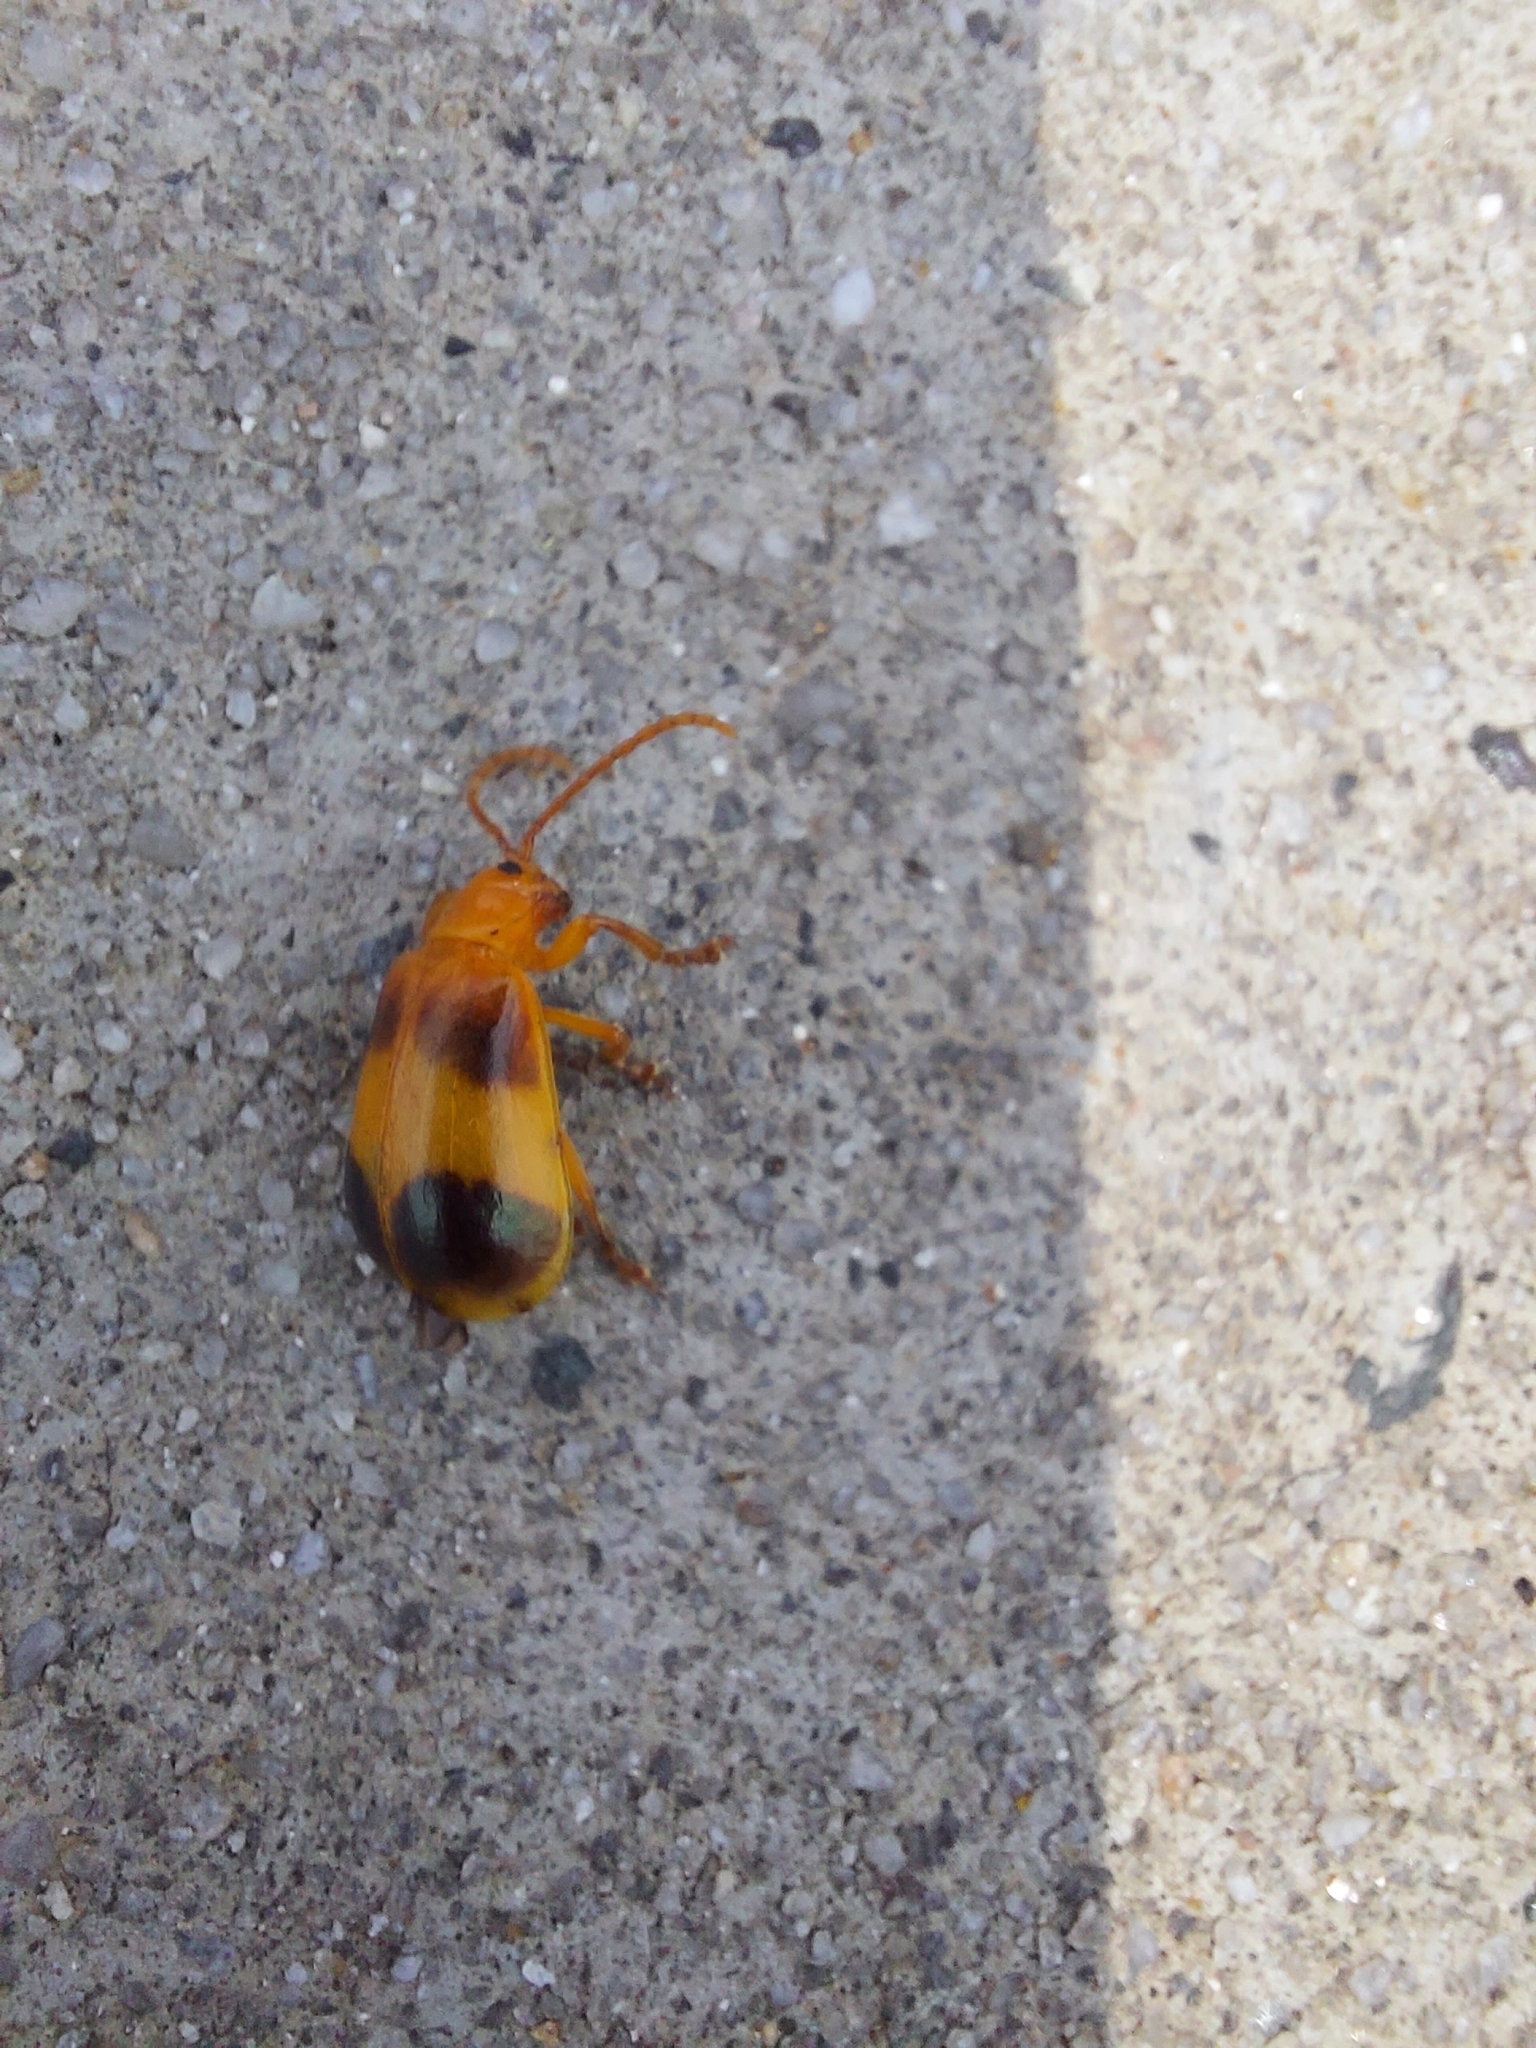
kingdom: Animalia
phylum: Arthropoda
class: Insecta
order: Coleoptera
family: Chrysomelidae
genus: Monocesta
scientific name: Monocesta coryli
